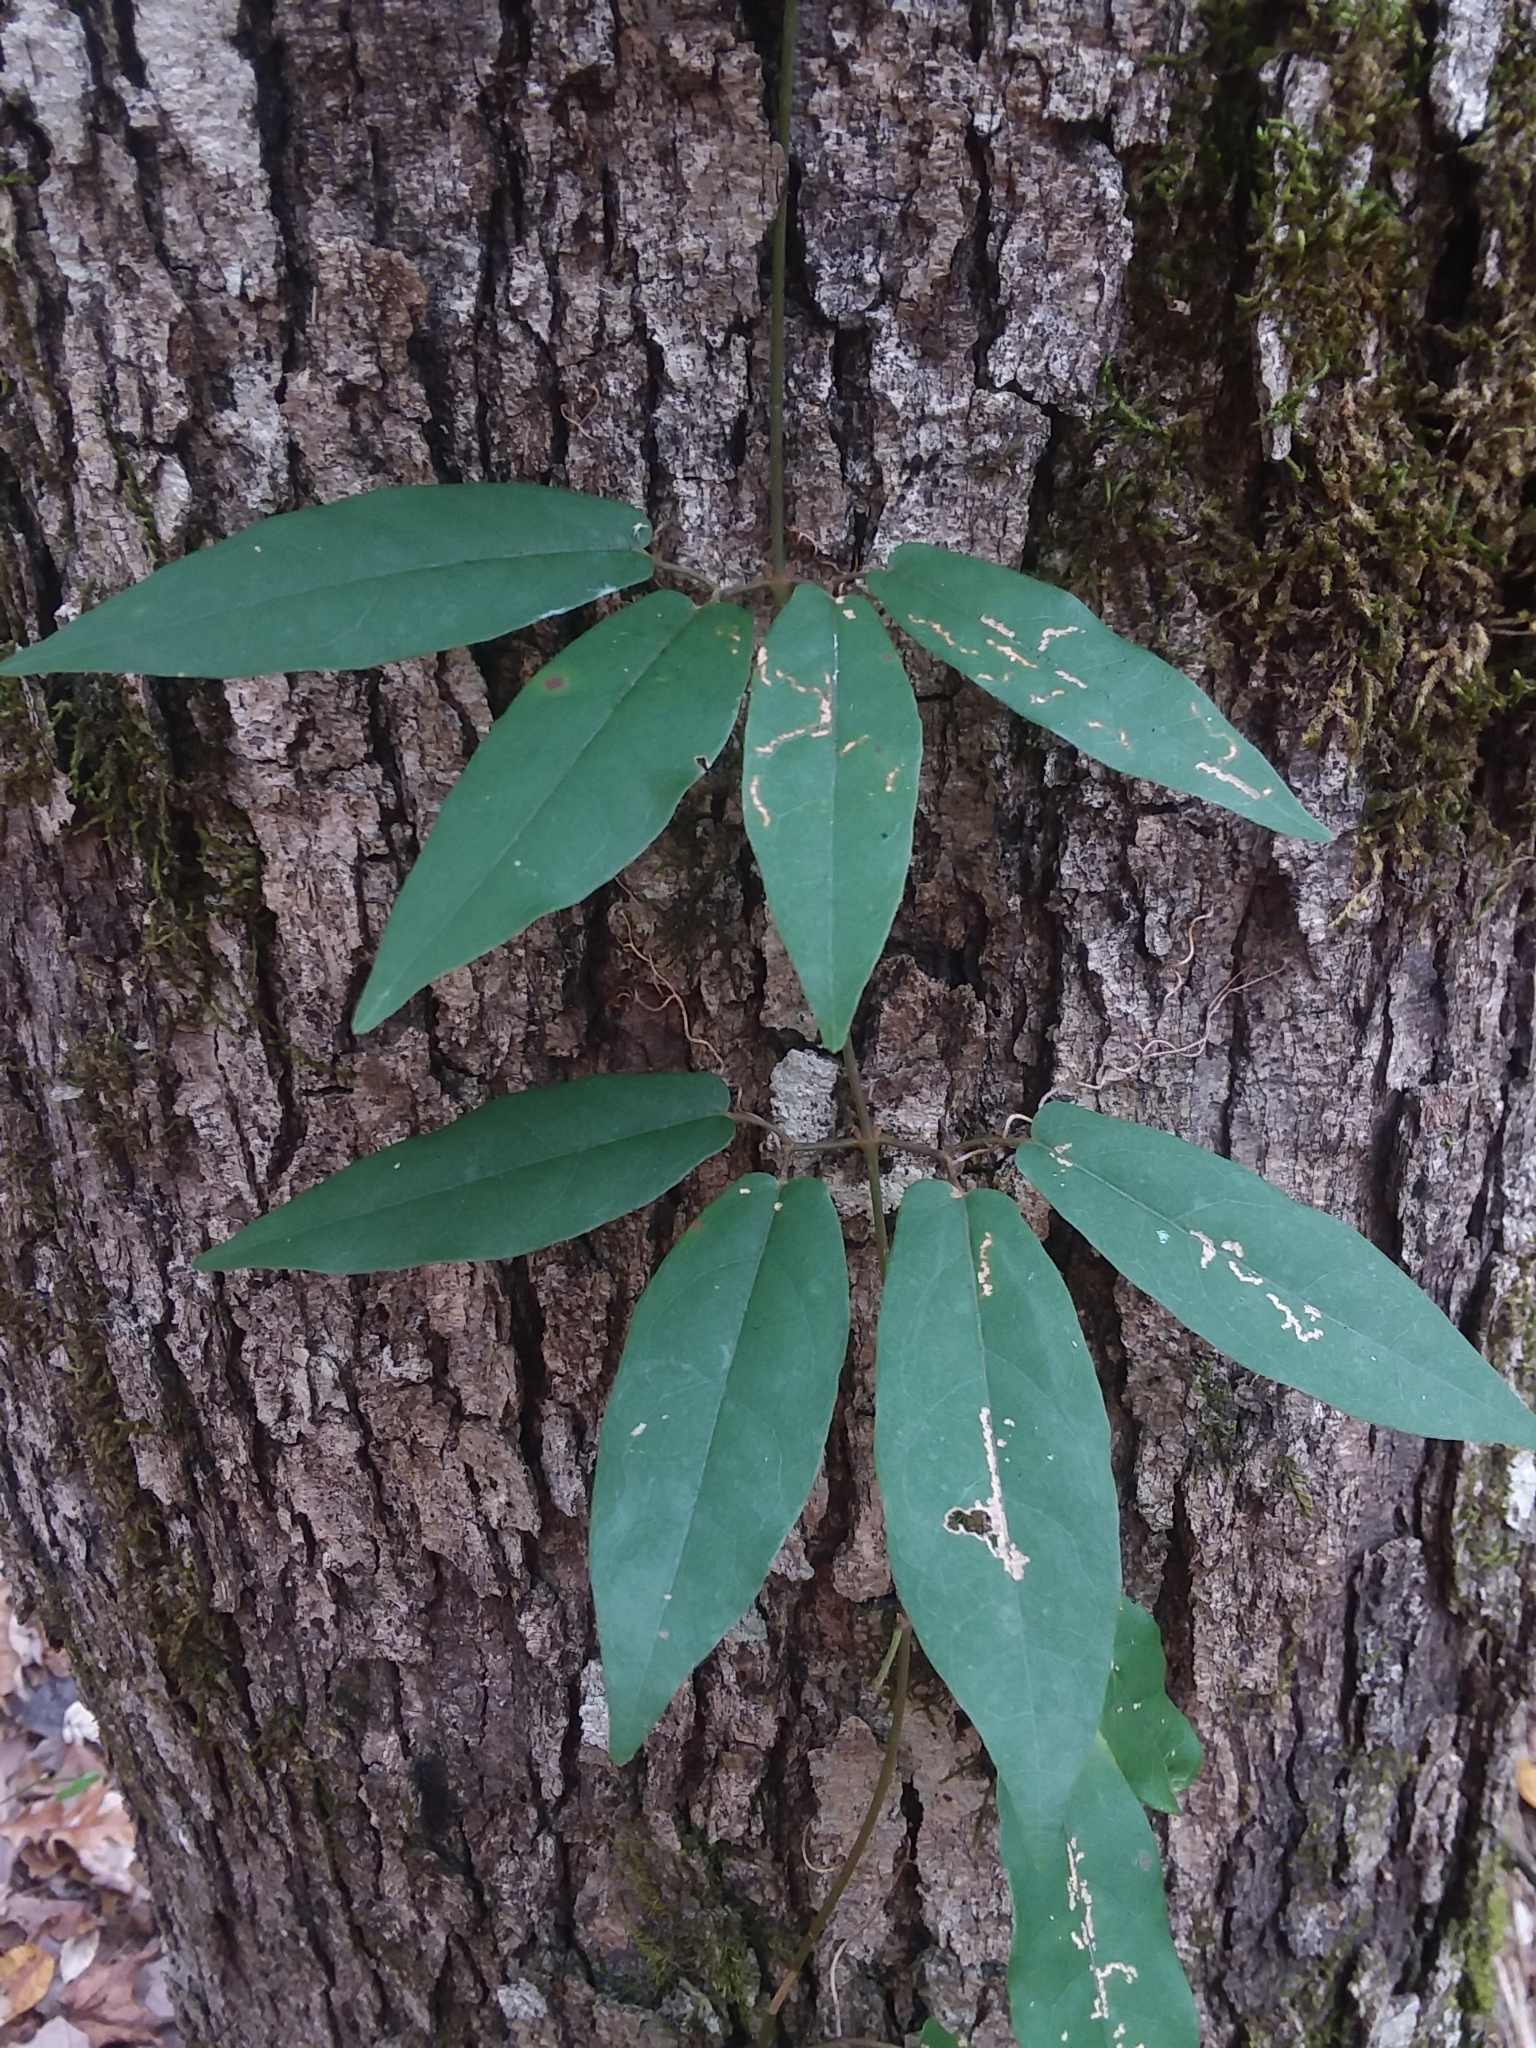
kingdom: Plantae
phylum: Tracheophyta
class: Magnoliopsida
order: Lamiales
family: Bignoniaceae
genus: Bignonia
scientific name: Bignonia capreolata
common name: Crossvine
